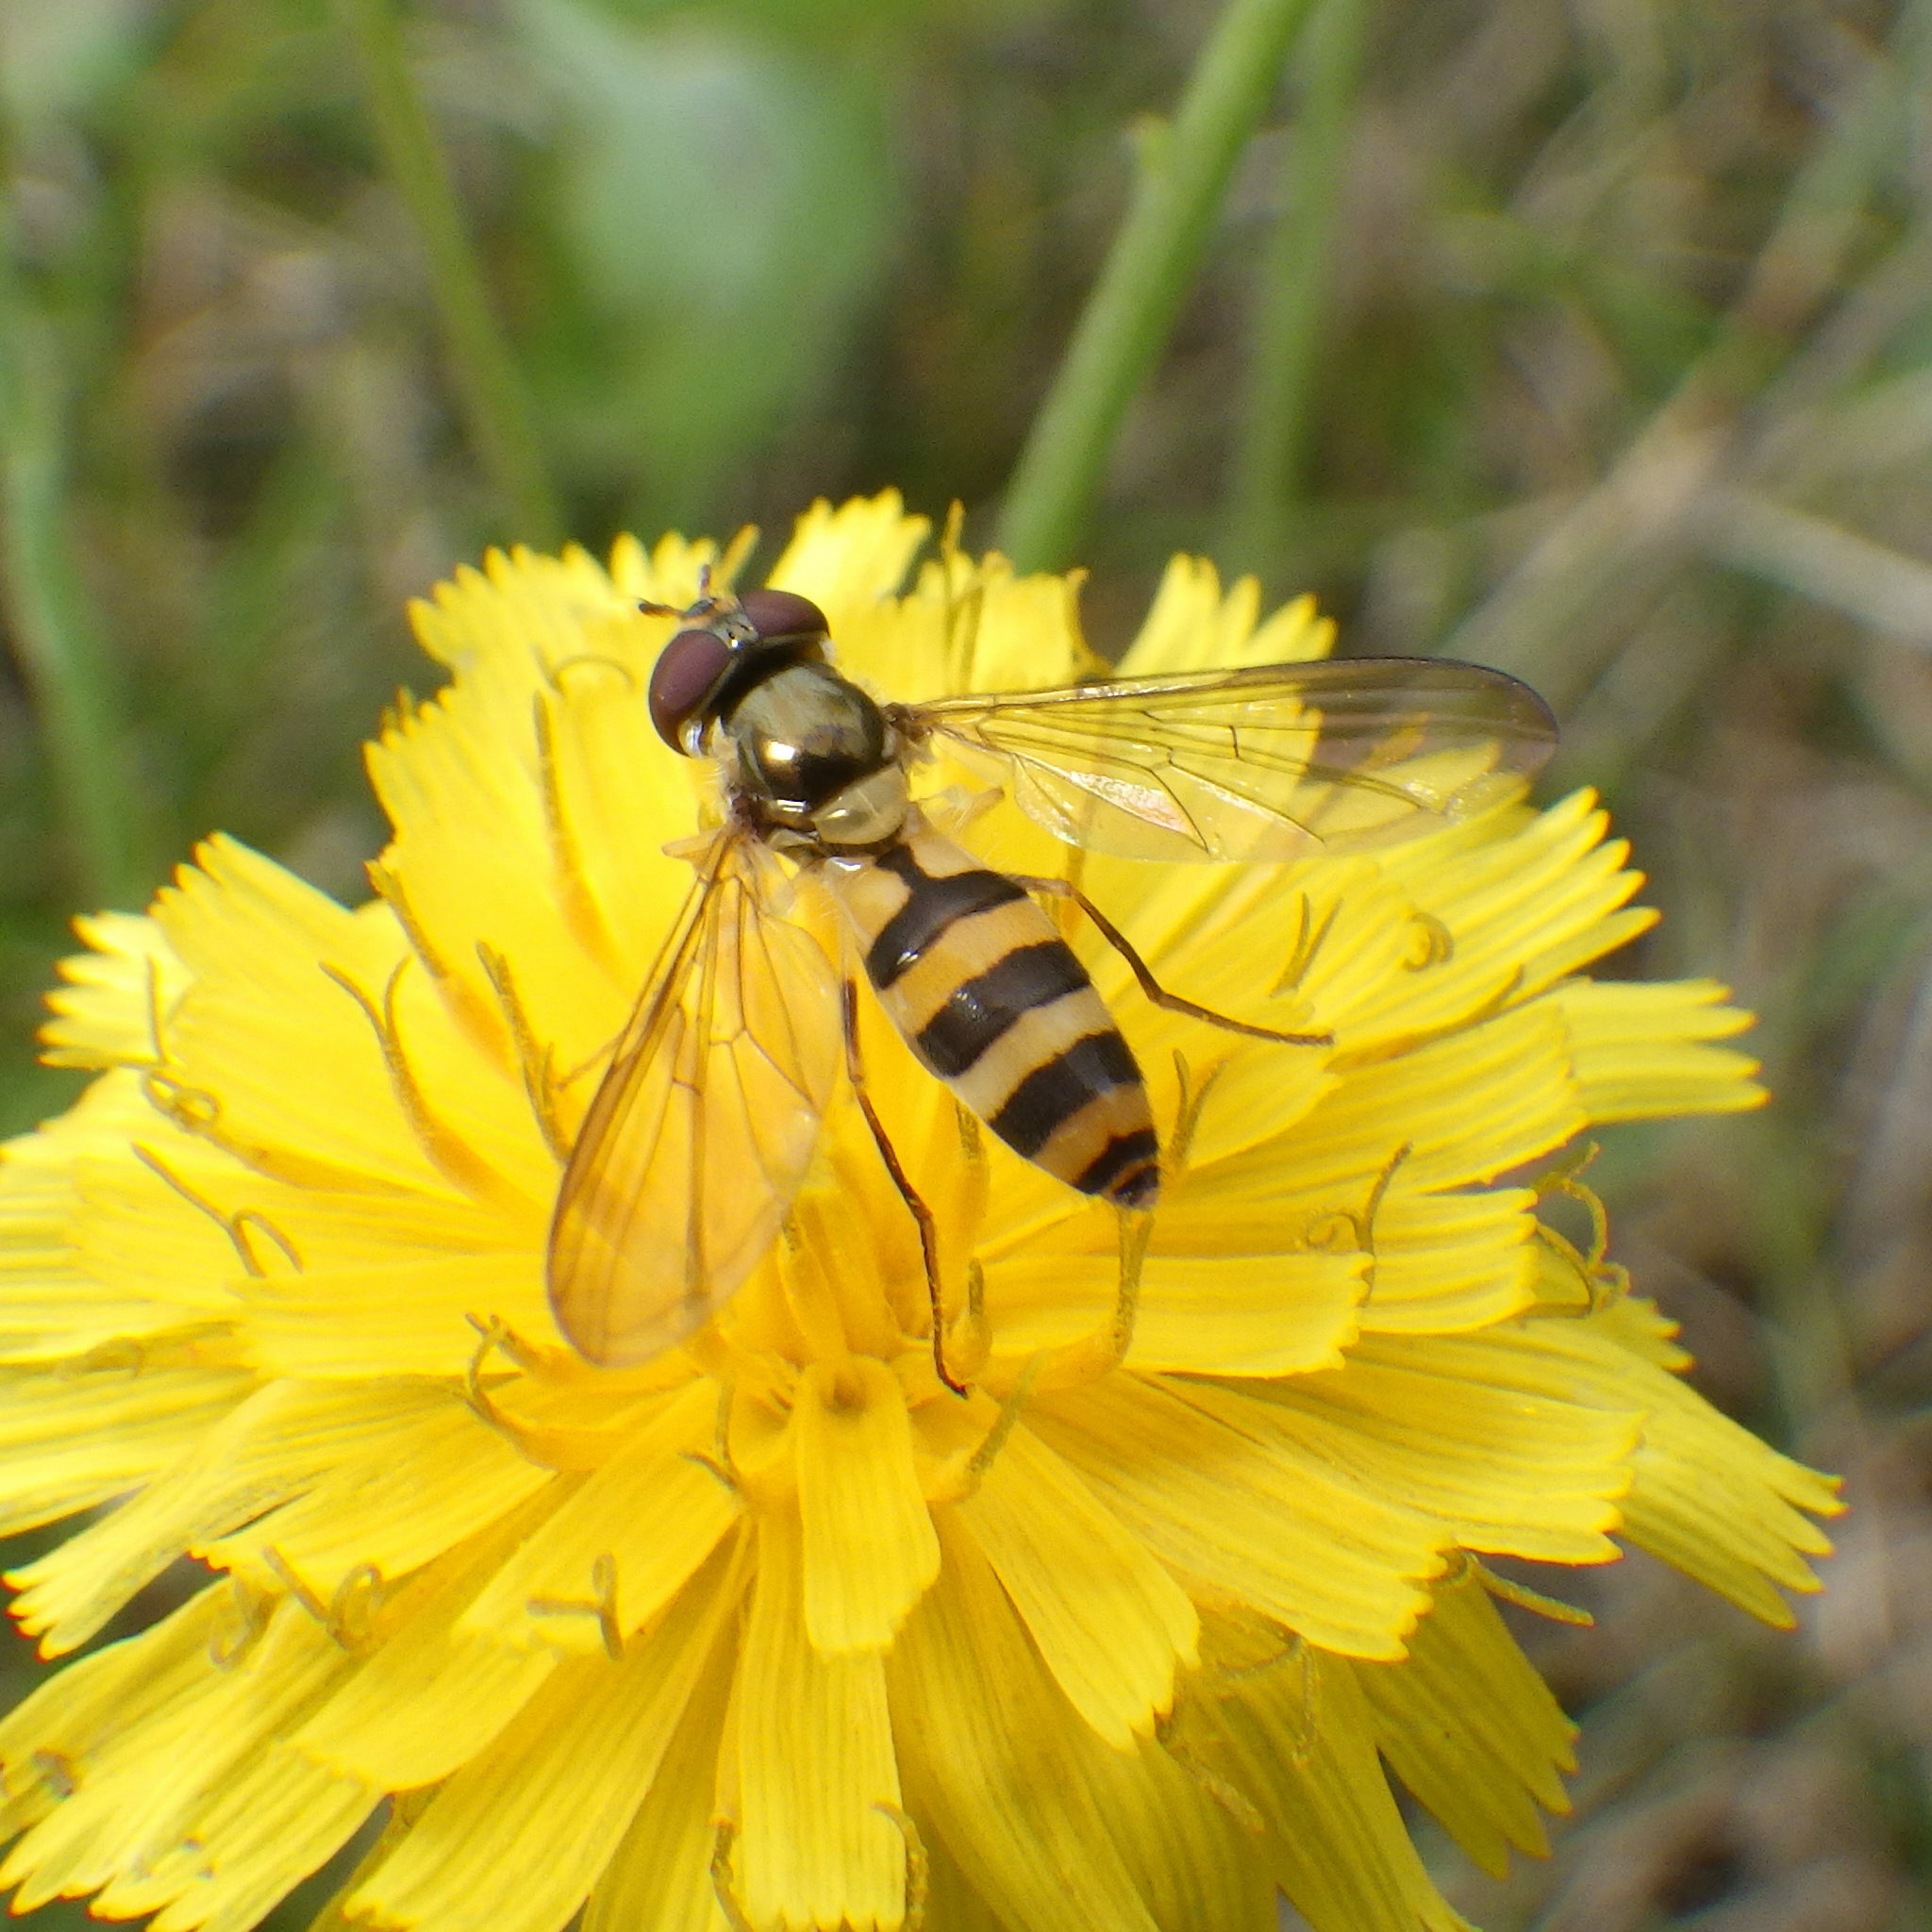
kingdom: Animalia
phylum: Arthropoda
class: Insecta
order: Diptera
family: Syrphidae
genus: Meliscaeva
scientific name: Meliscaeva cinctella
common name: American thintail fly
